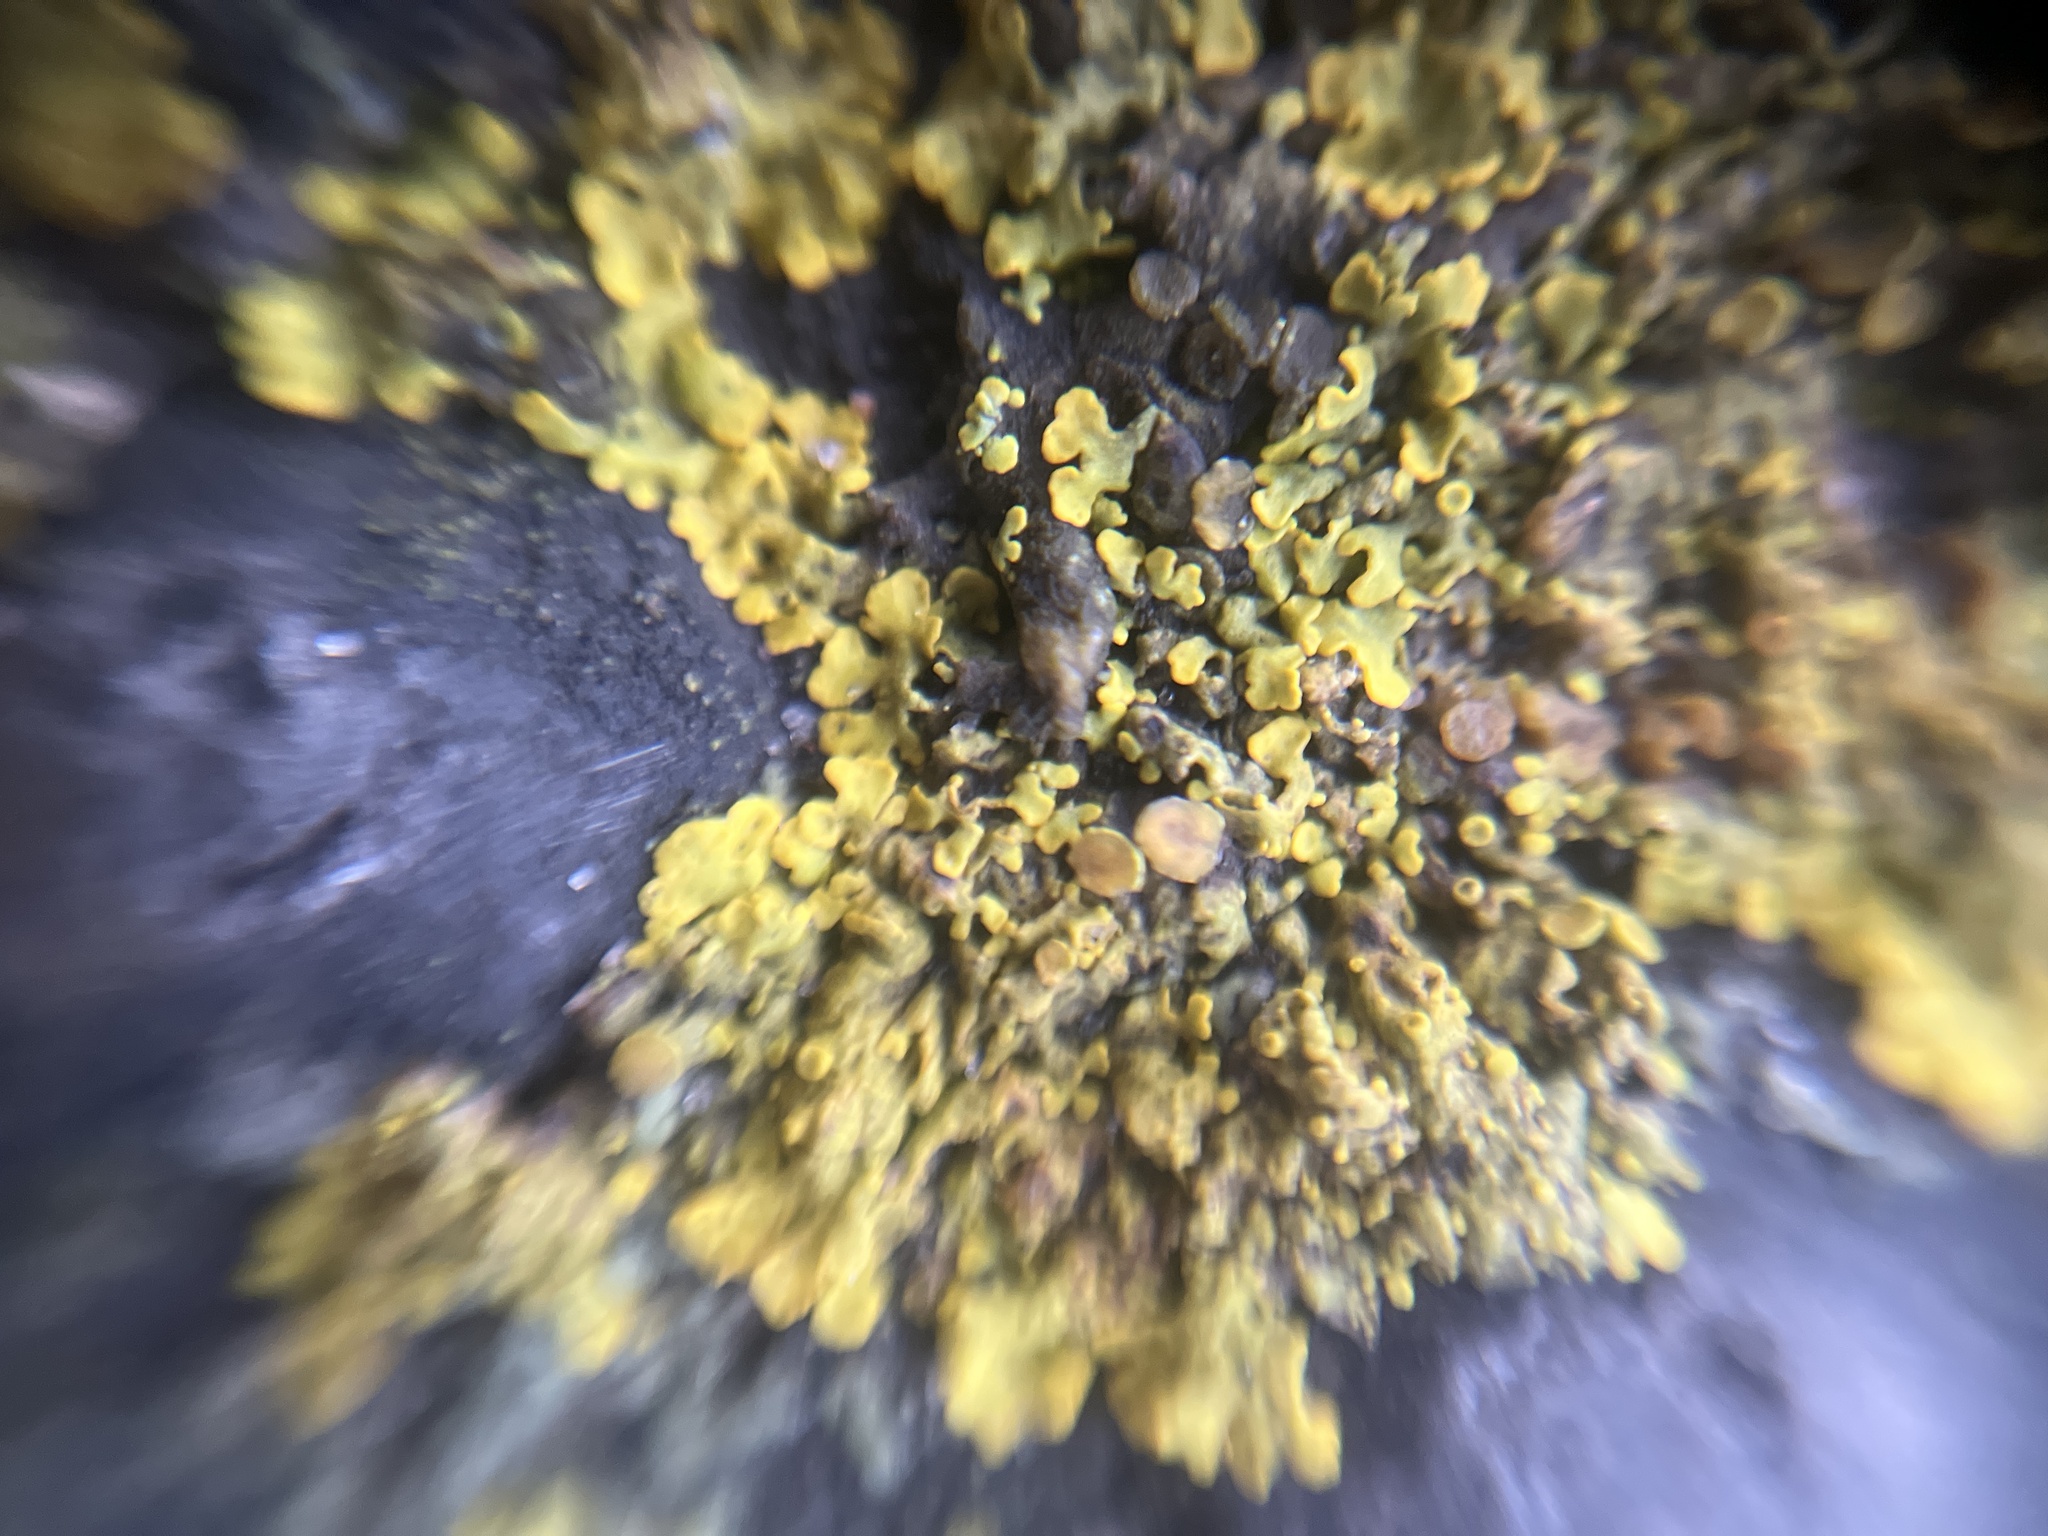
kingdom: Fungi
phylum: Ascomycota
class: Lecanoromycetes
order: Teloschistales
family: Teloschistaceae
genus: Xanthoria
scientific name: Xanthoria parietina
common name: Common orange lichen
